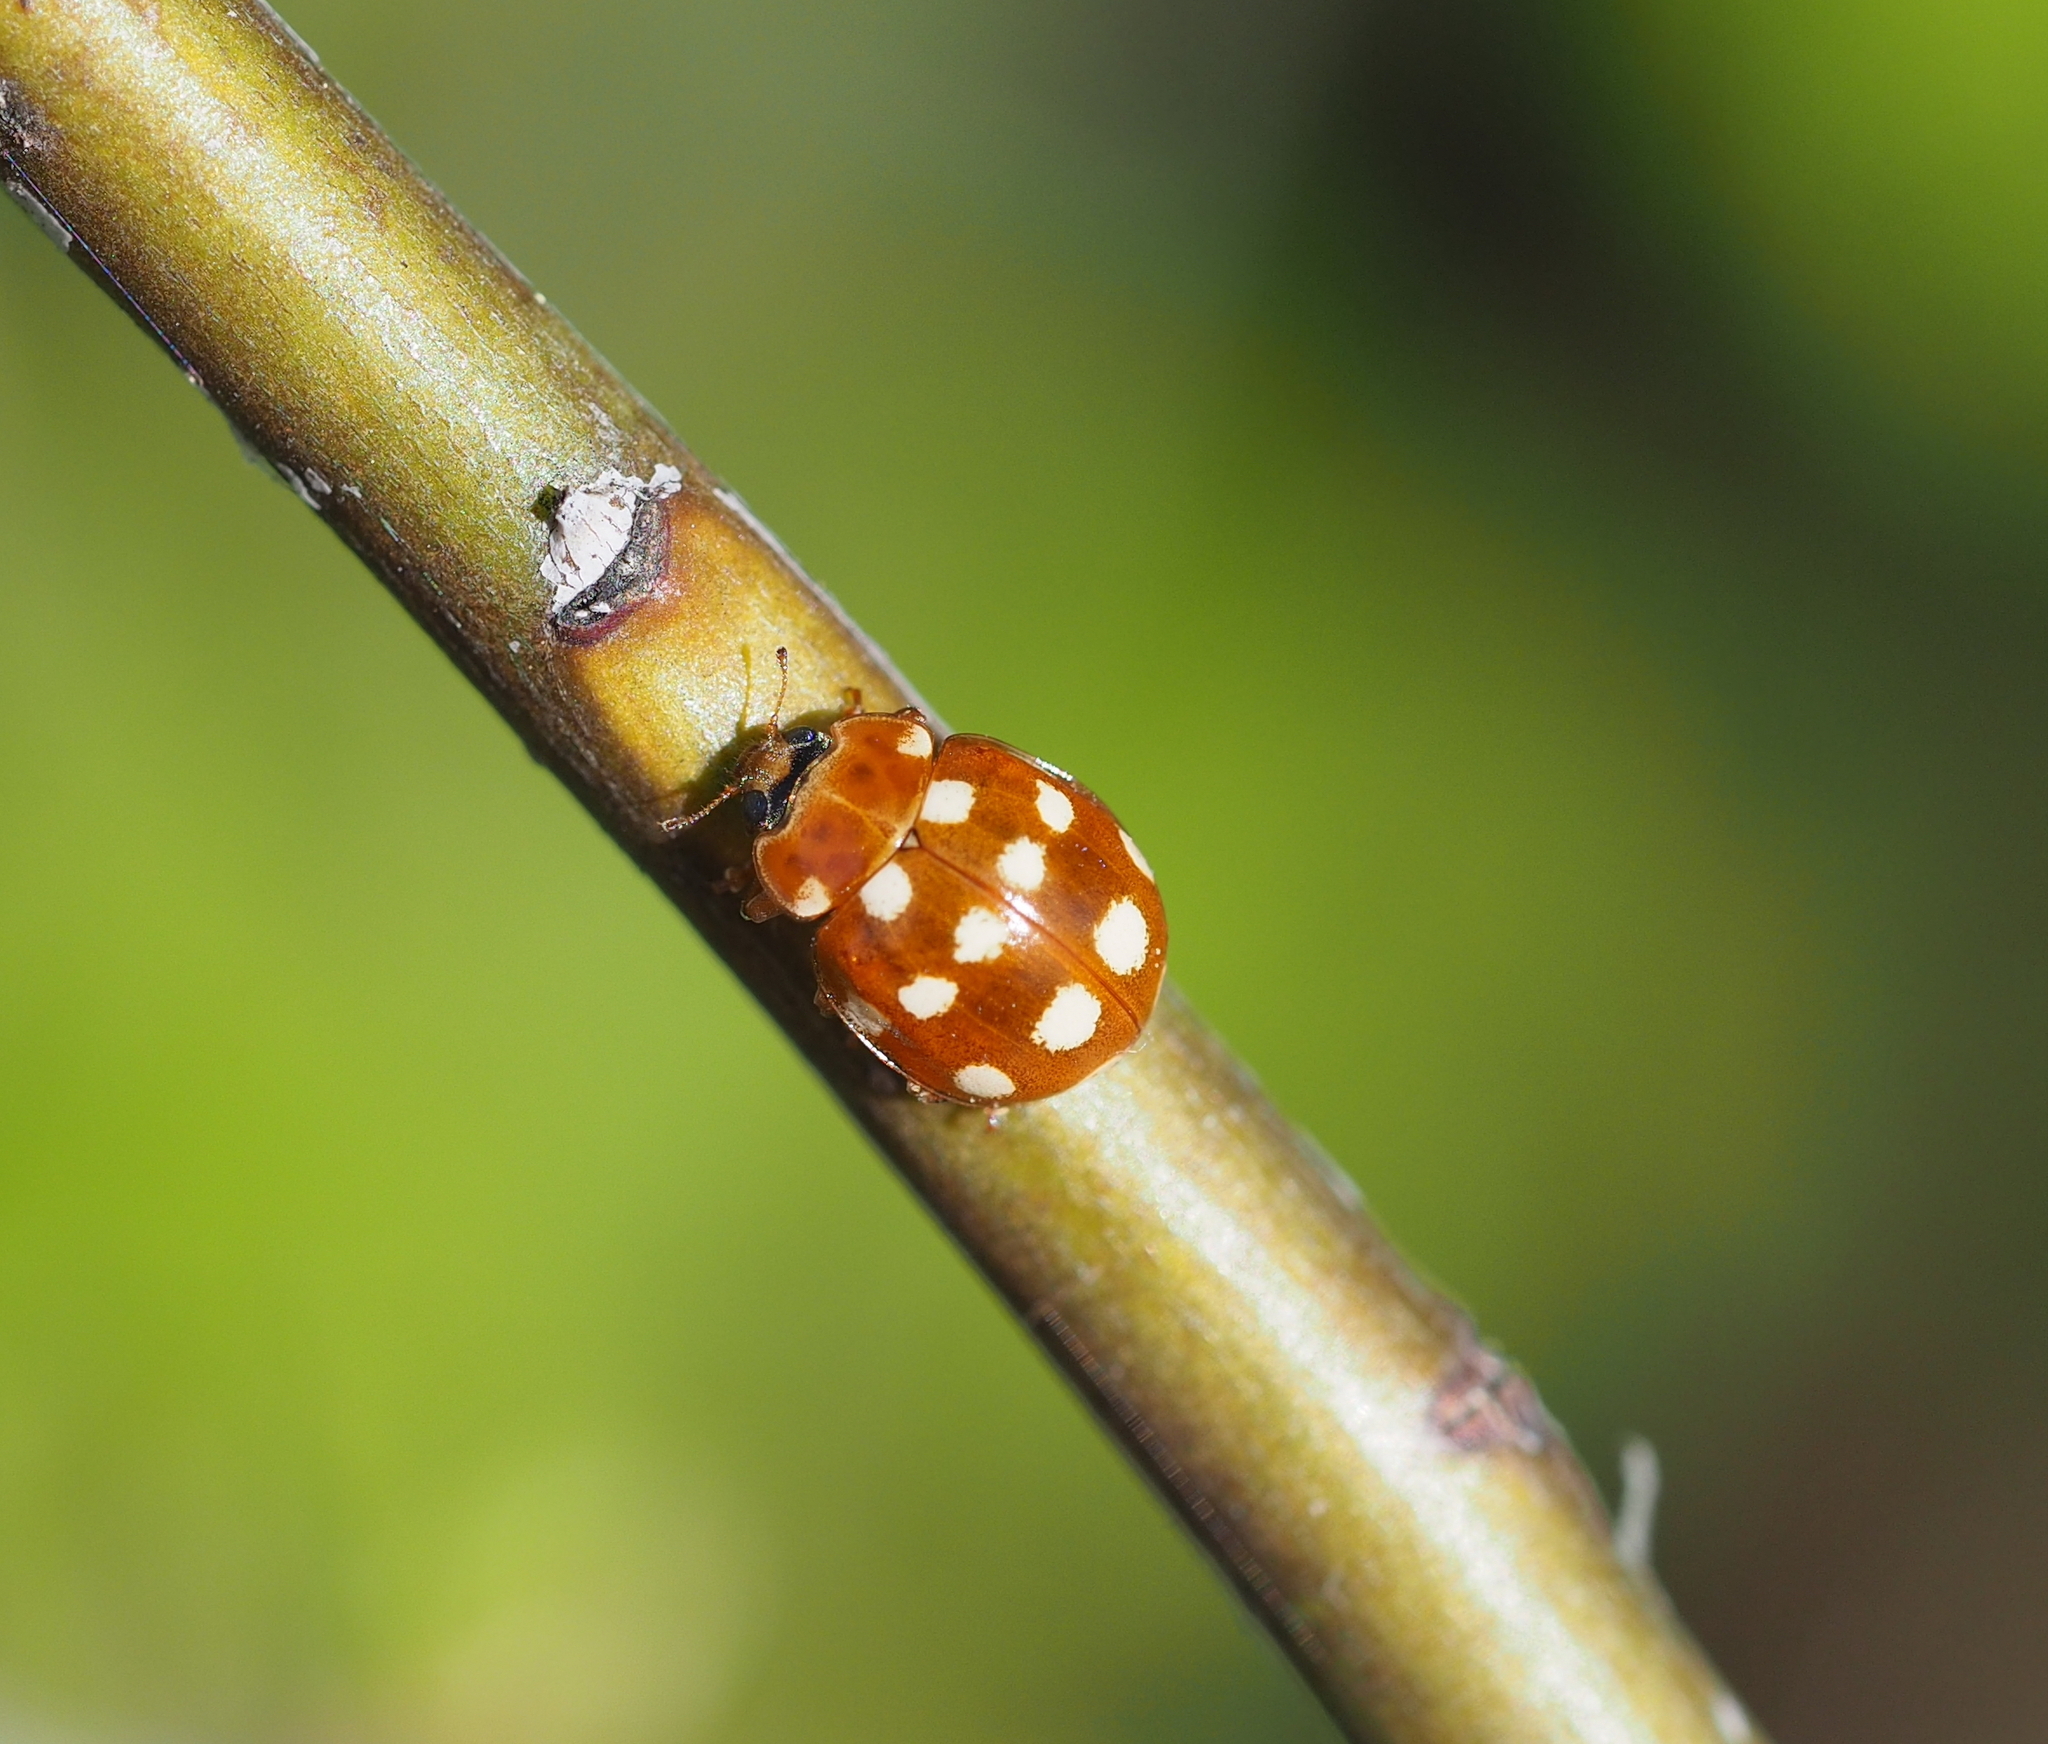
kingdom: Animalia
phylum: Arthropoda
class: Insecta
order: Coleoptera
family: Coccinellidae
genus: Calvia
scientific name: Calvia quatuordecimguttata
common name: Cream-spot ladybird
